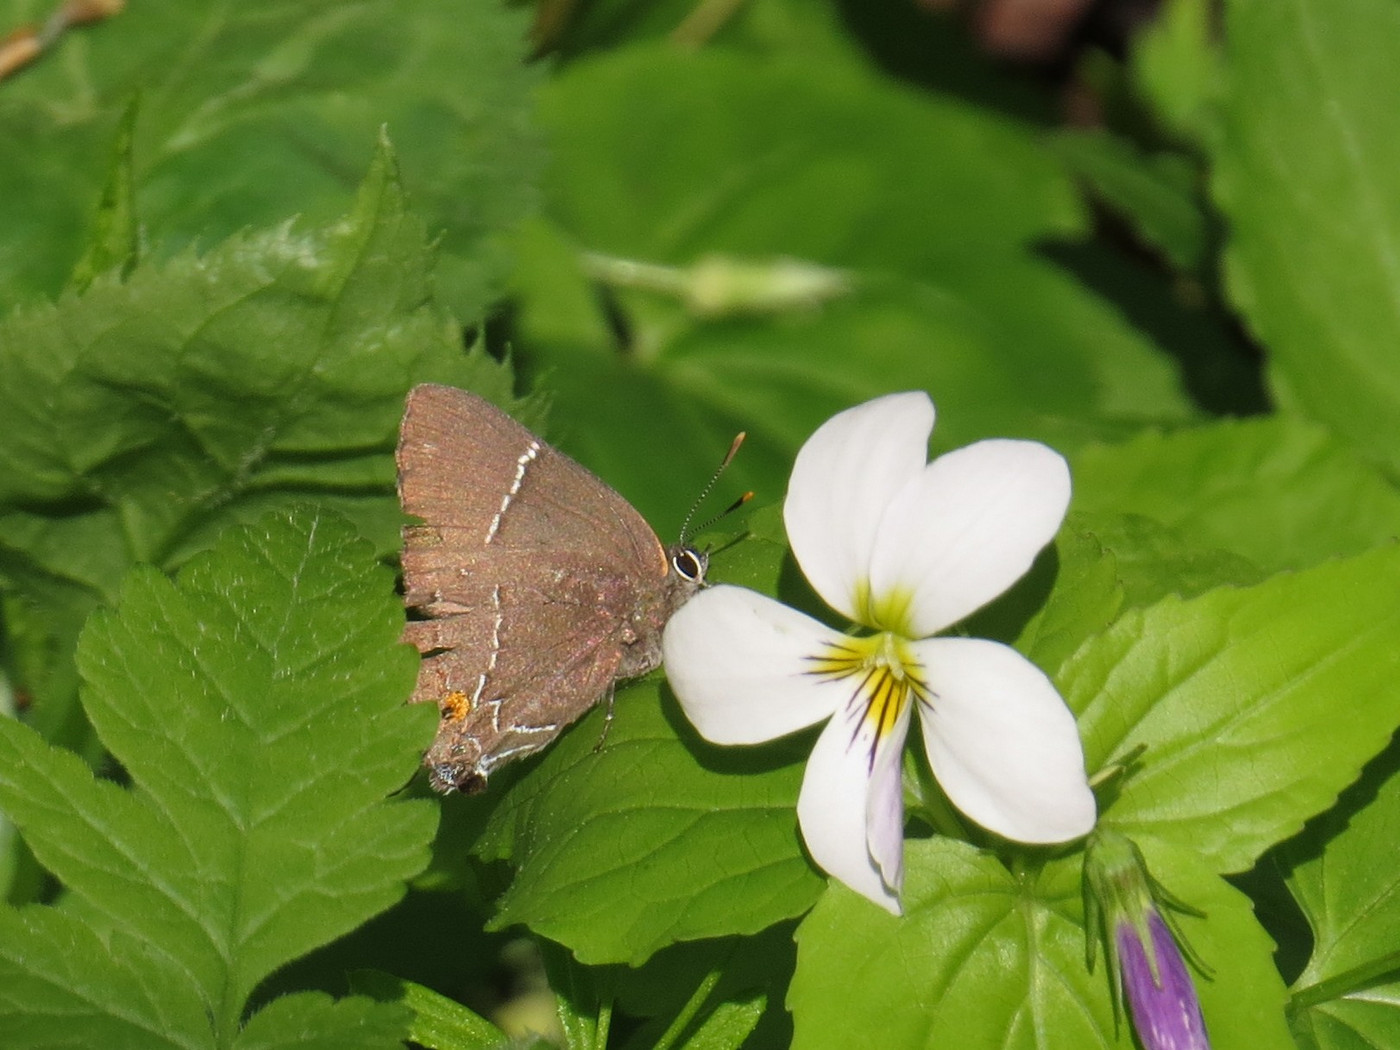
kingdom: Animalia
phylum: Arthropoda
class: Insecta
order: Lepidoptera
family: Lycaenidae
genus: Parrhasius
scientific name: Parrhasius m-album
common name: White m hairstreak
